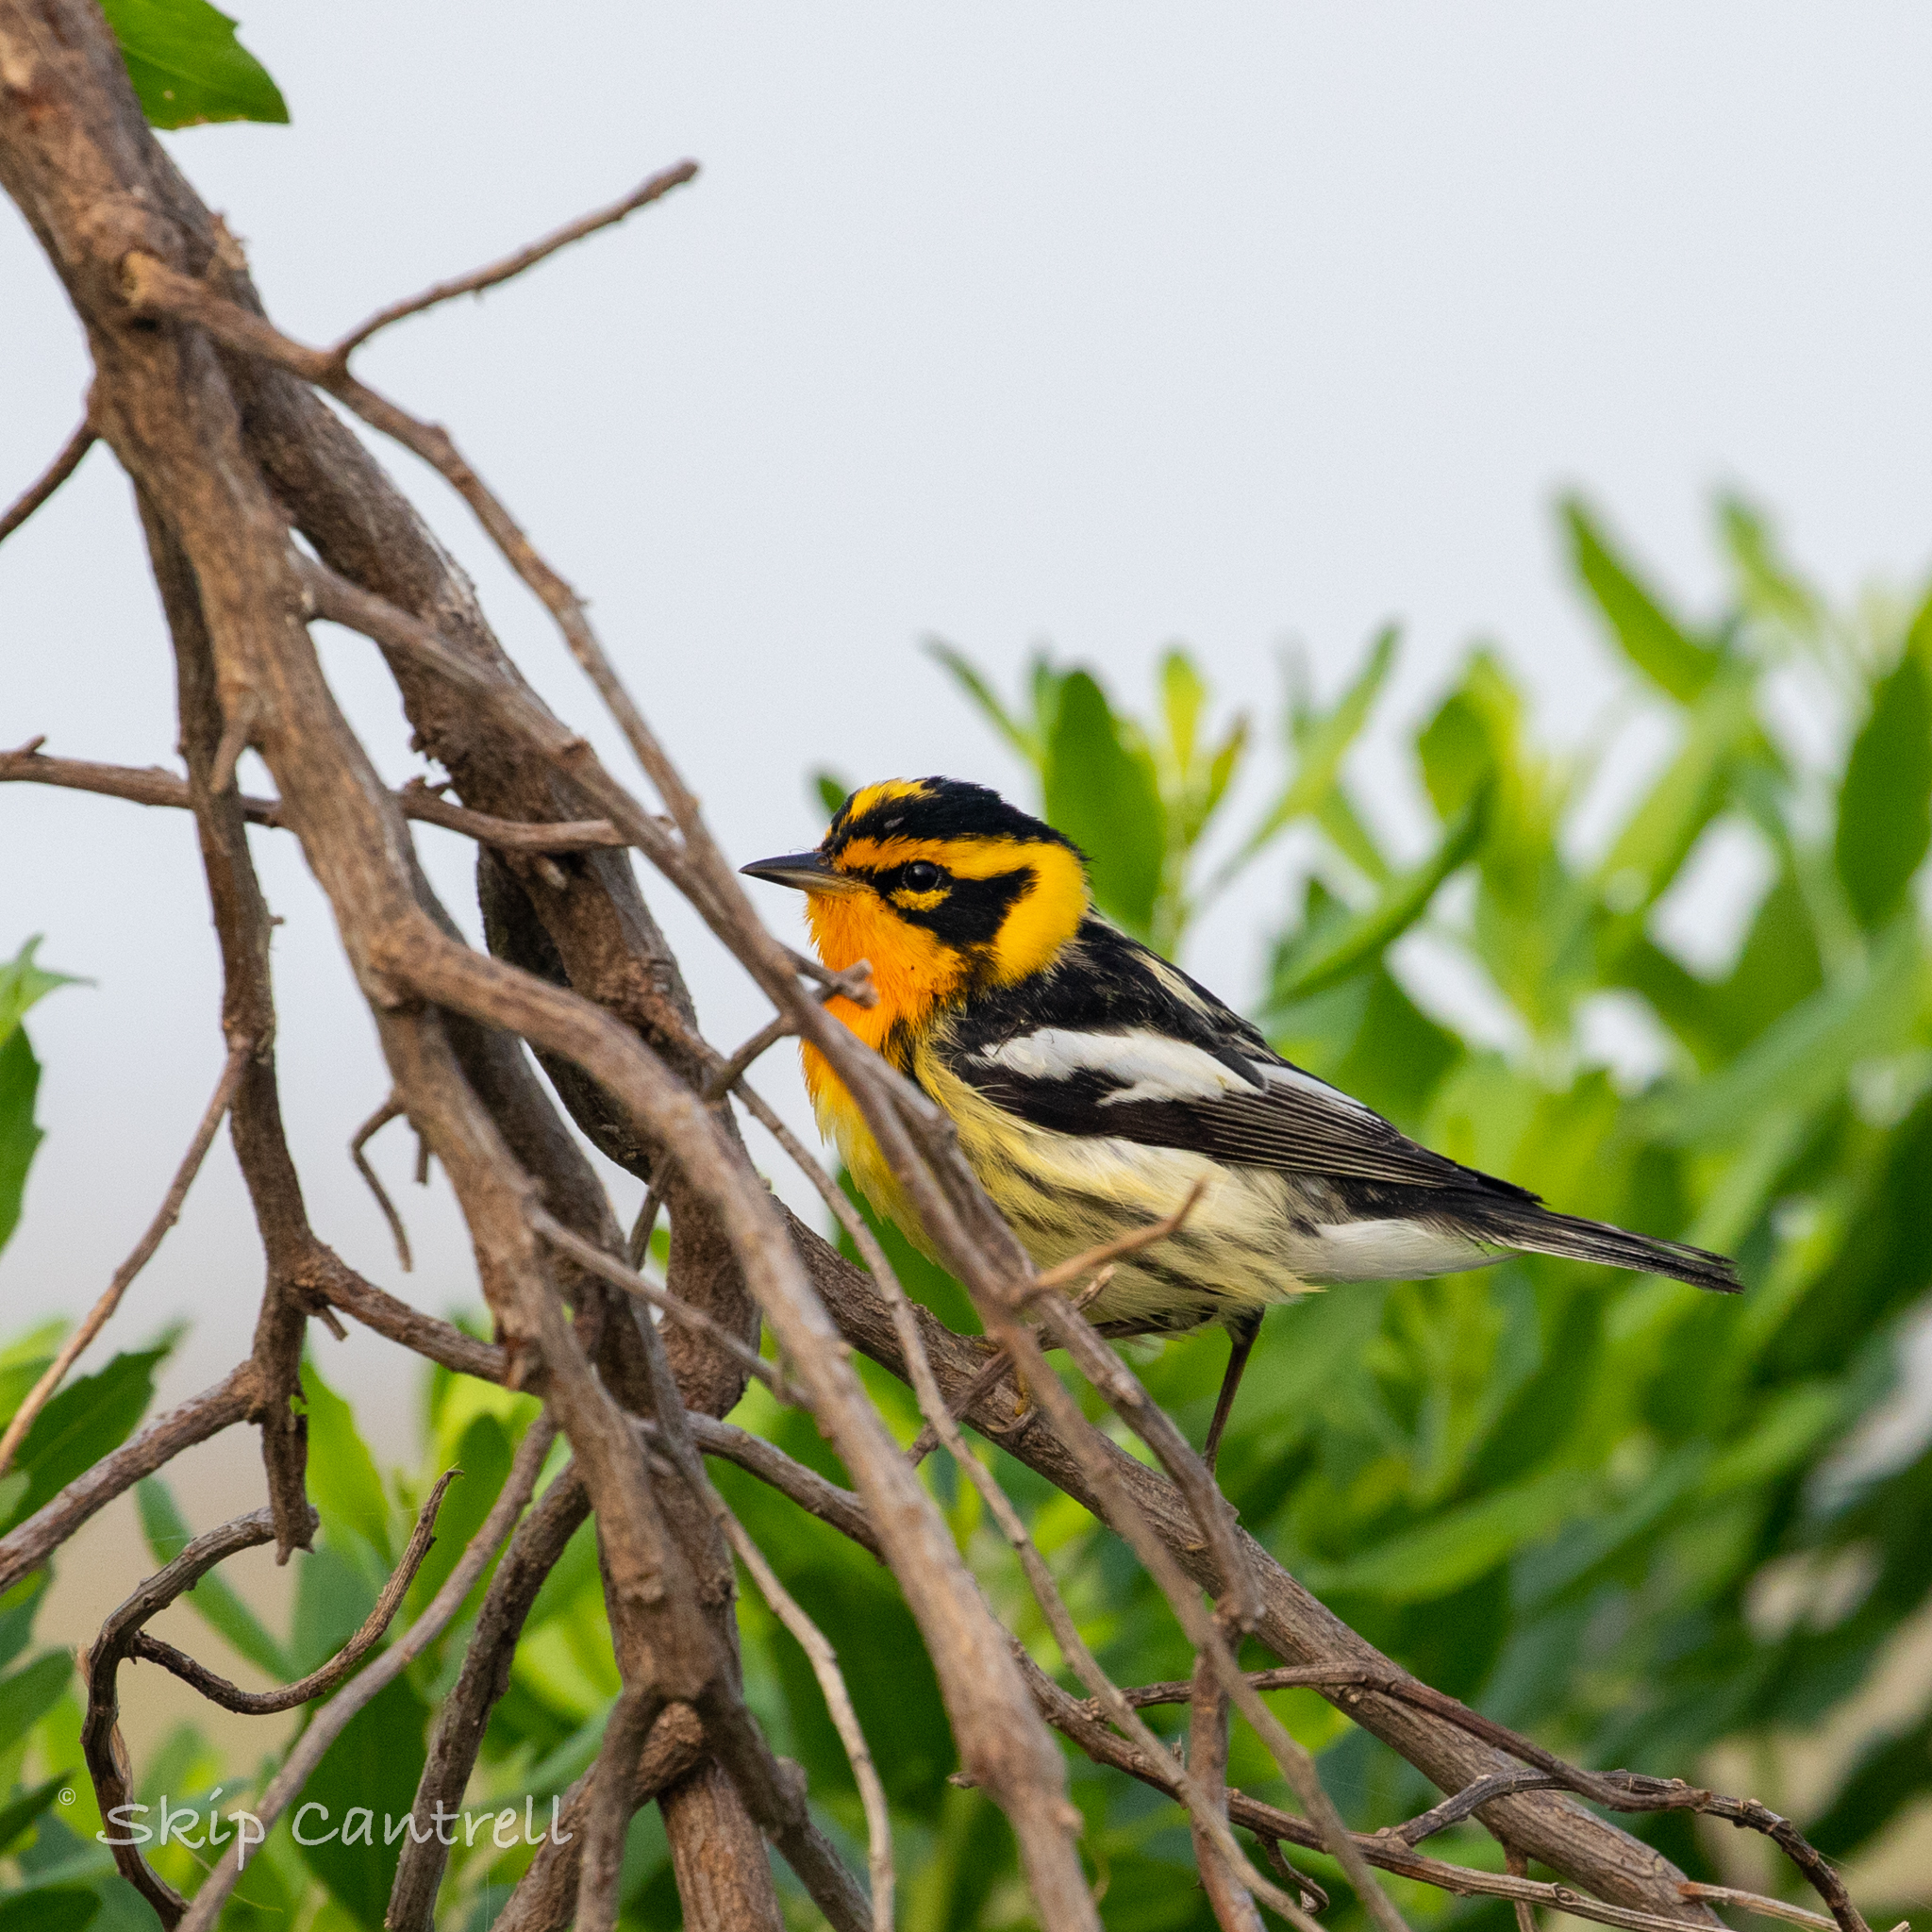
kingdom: Animalia
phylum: Chordata
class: Aves
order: Passeriformes
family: Parulidae
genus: Setophaga
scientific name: Setophaga fusca
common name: Blackburnian warbler
